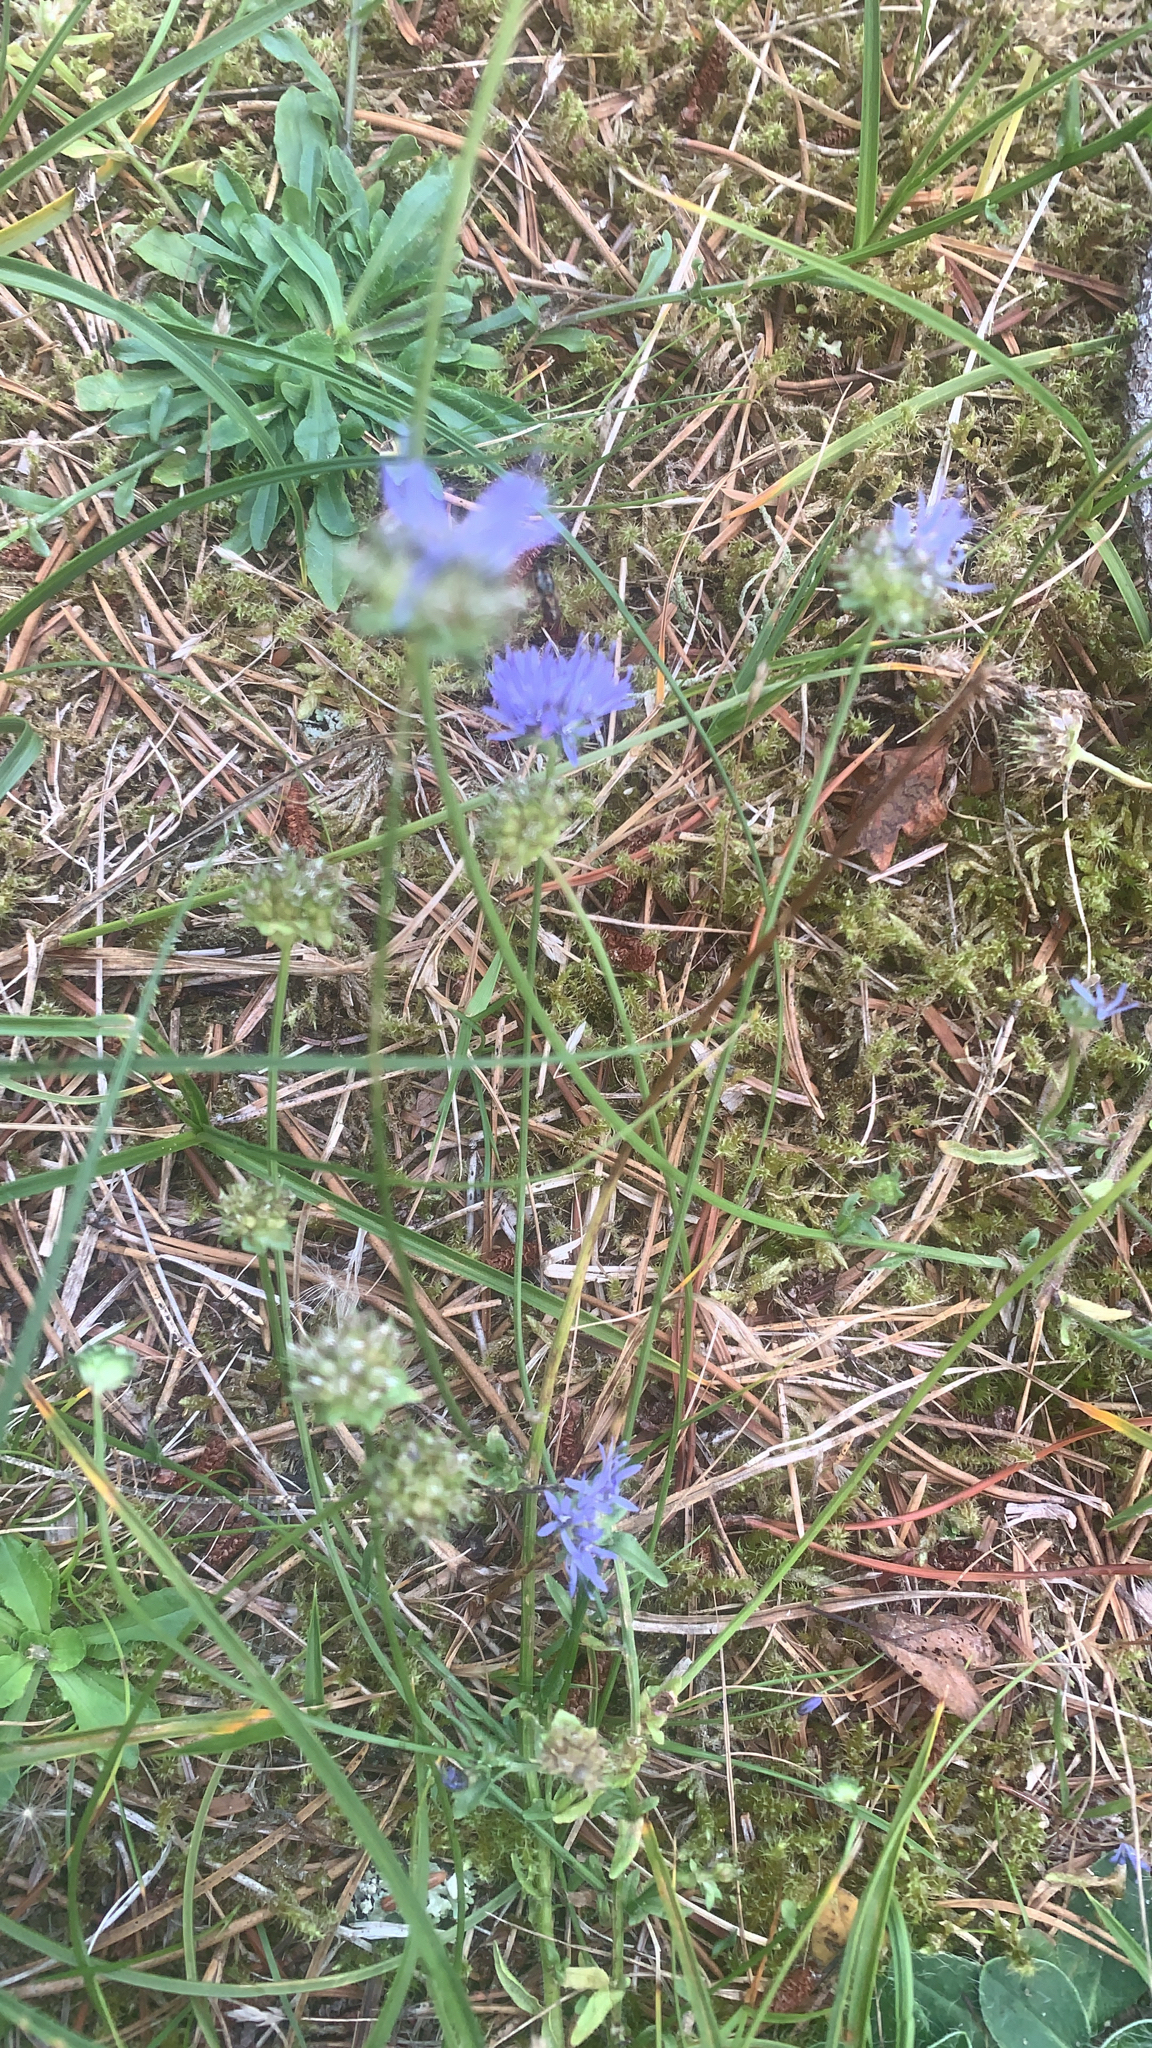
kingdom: Plantae
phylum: Tracheophyta
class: Magnoliopsida
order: Asterales
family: Campanulaceae
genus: Jasione
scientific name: Jasione montana
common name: Sheep's-bit
